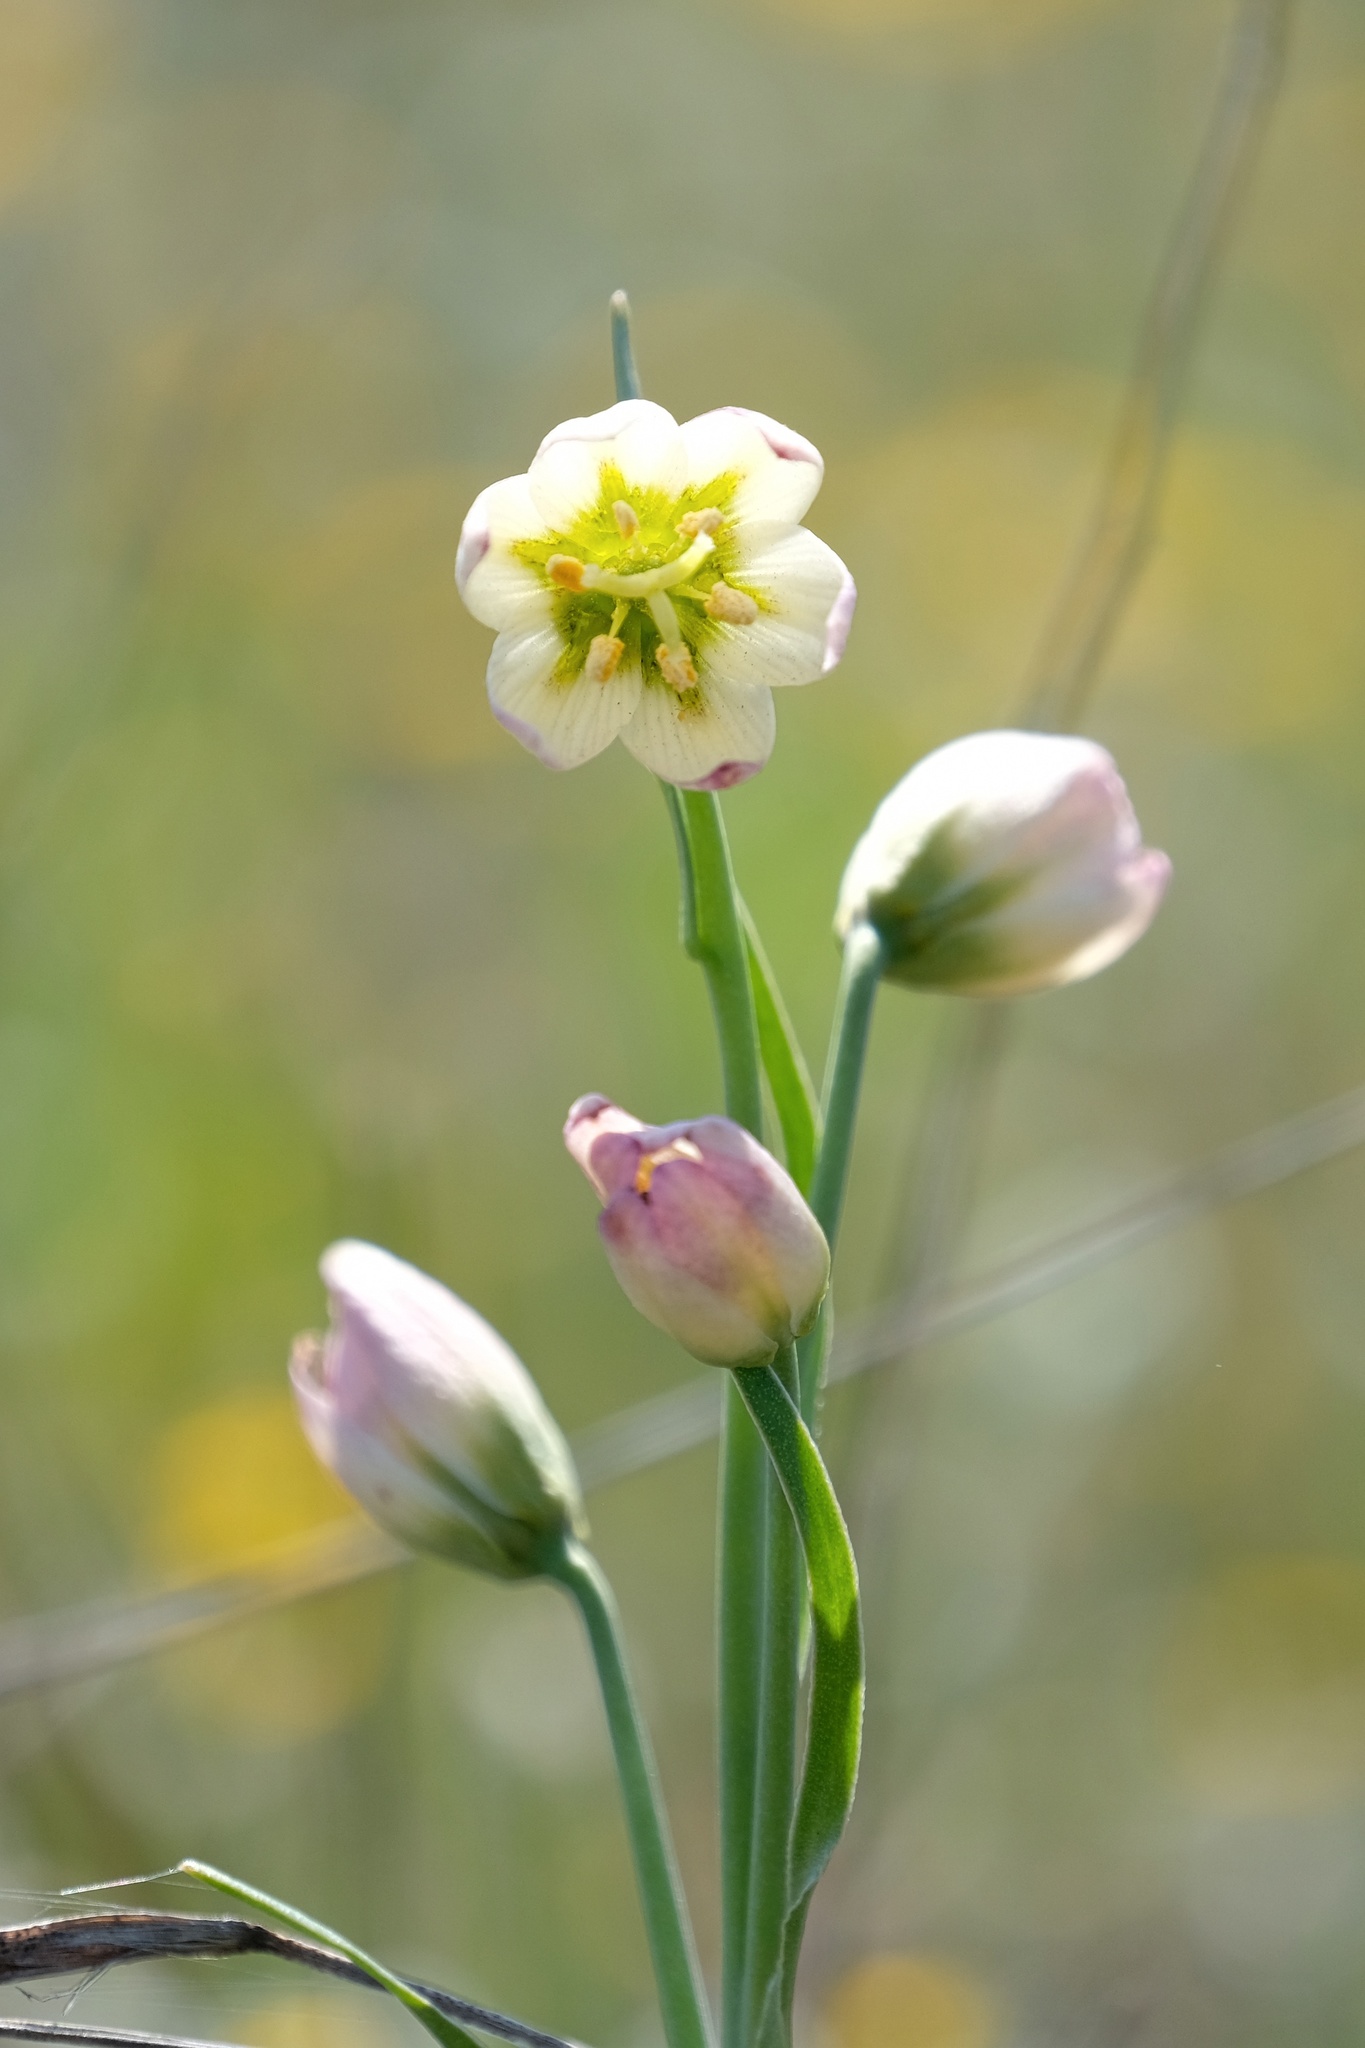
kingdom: Plantae
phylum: Tracheophyta
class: Liliopsida
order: Liliales
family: Liliaceae
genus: Fritillaria
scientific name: Fritillaria liliacea
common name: Fragrant fritillary
